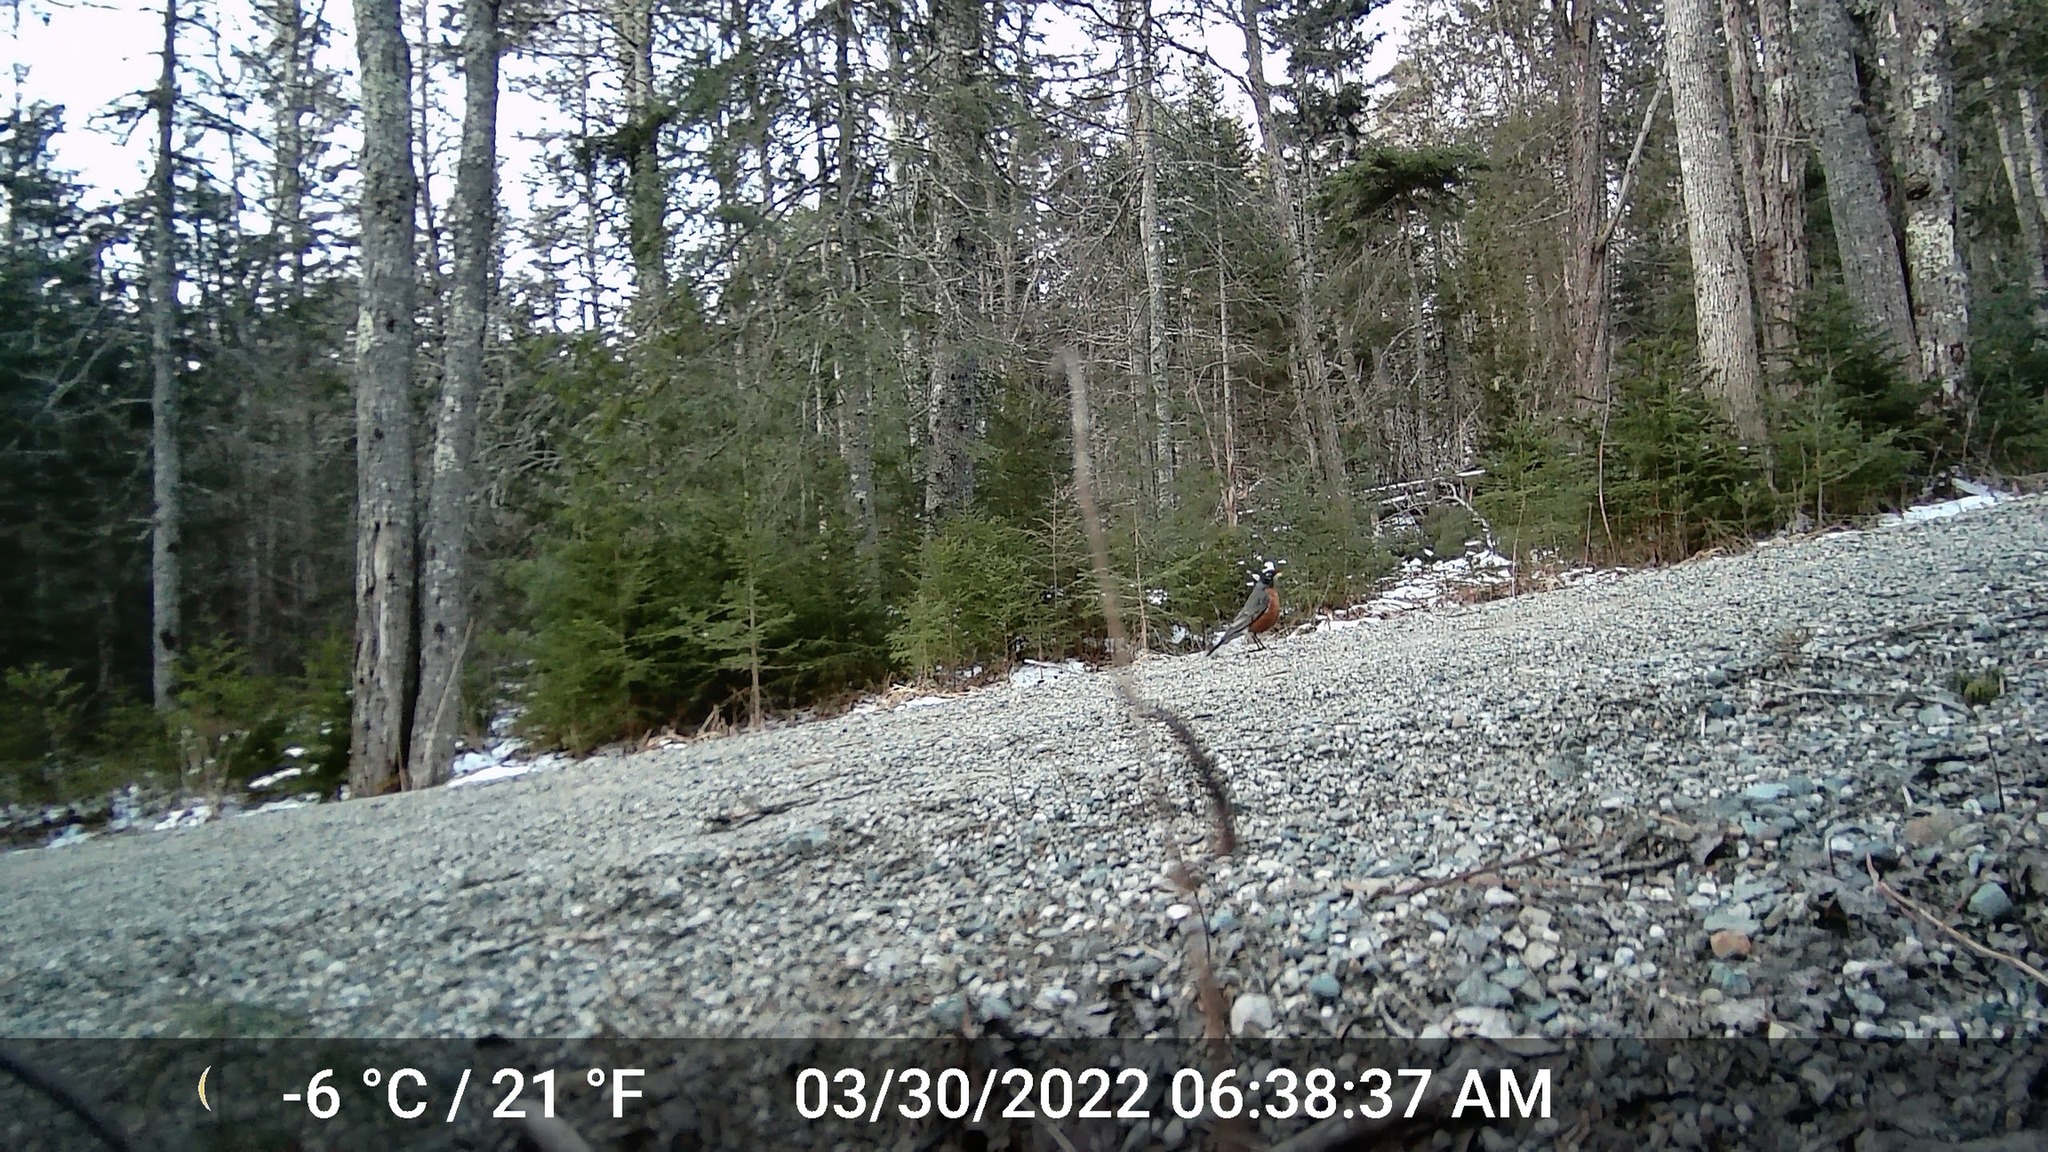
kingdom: Animalia
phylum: Chordata
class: Aves
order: Passeriformes
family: Turdidae
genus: Turdus
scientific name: Turdus migratorius
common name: American robin
